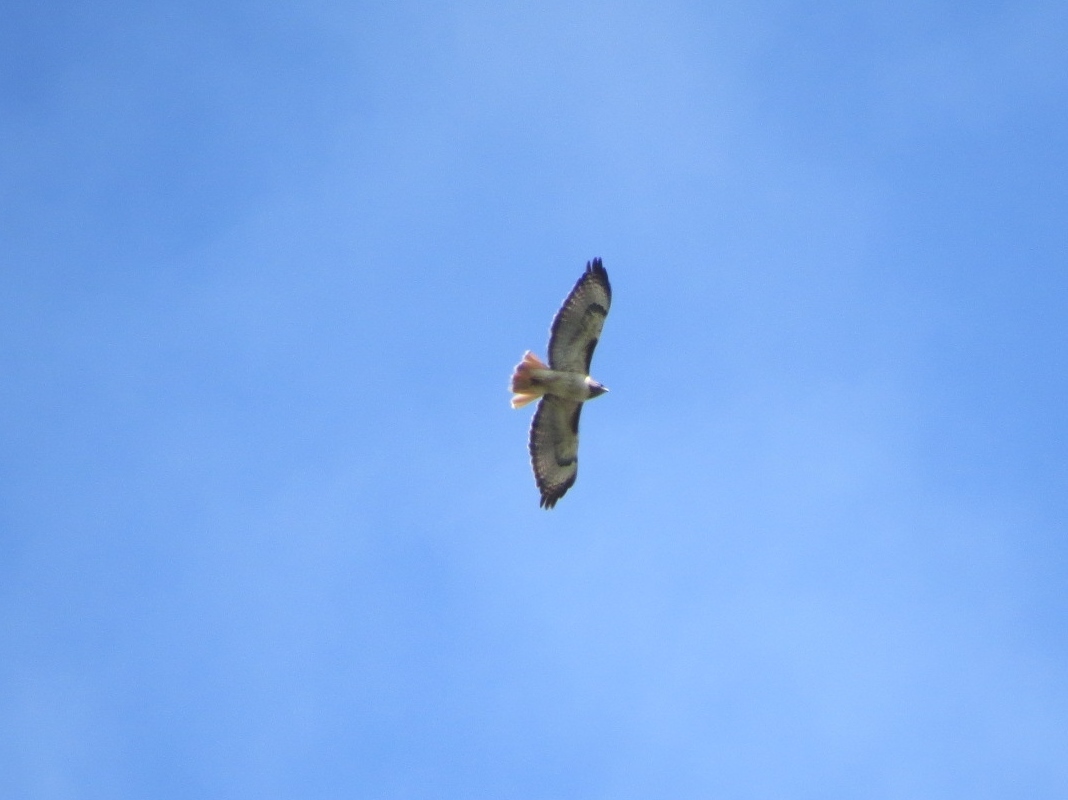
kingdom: Animalia
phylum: Chordata
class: Aves
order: Accipitriformes
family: Accipitridae
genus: Buteo
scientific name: Buteo jamaicensis
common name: Red-tailed hawk
